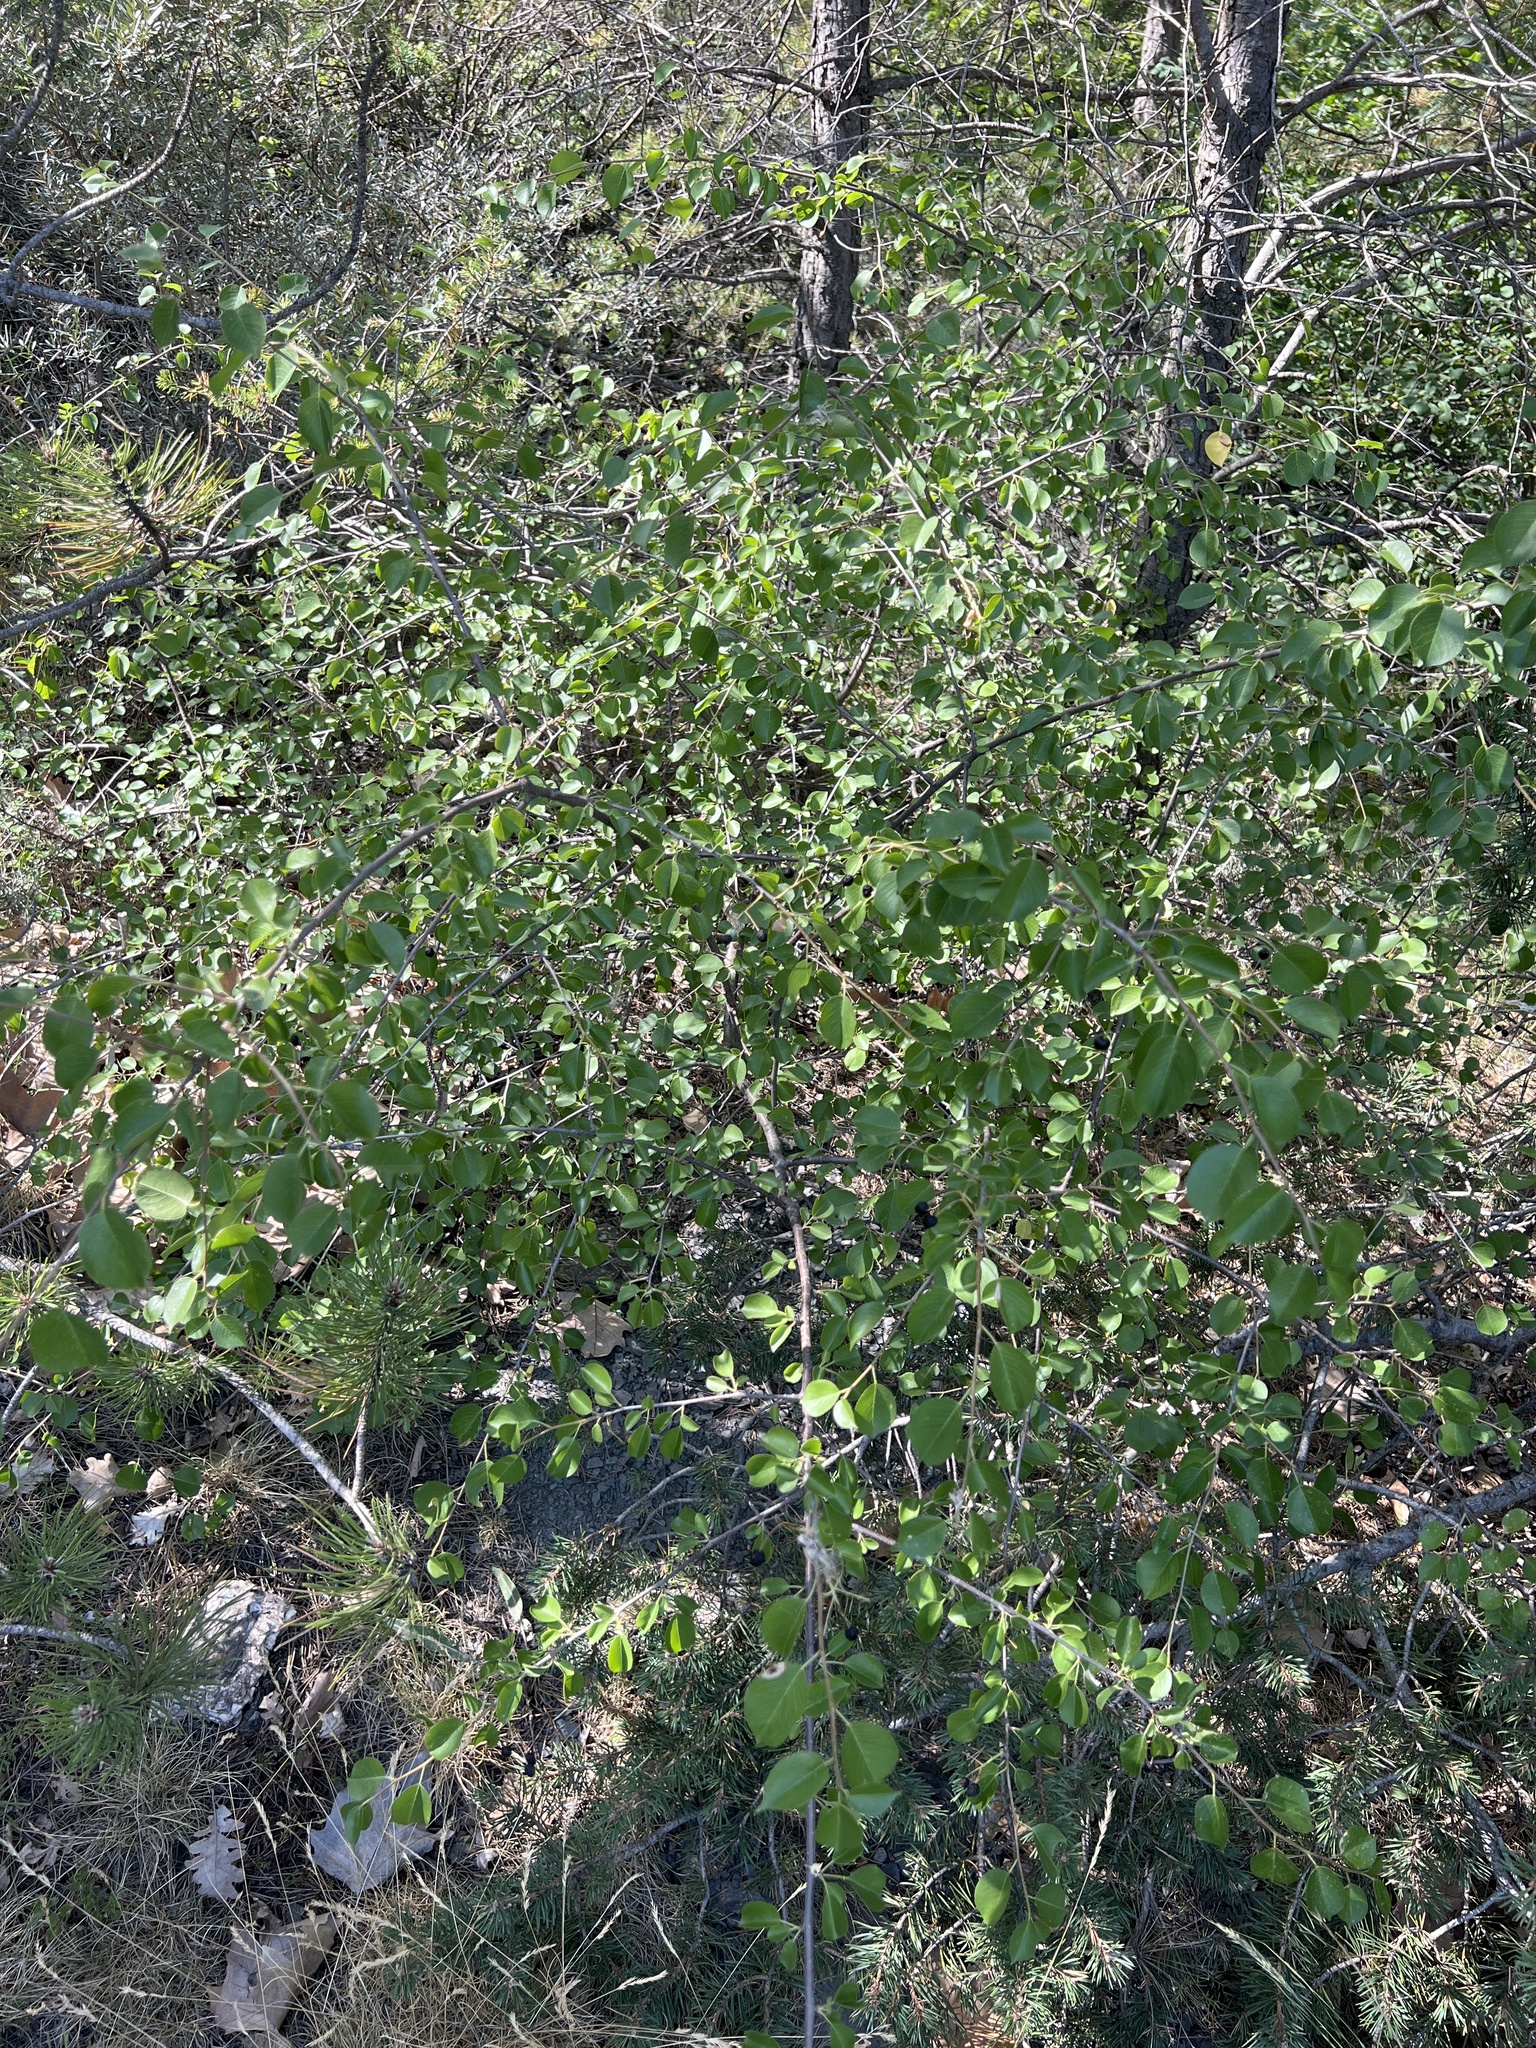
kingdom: Plantae
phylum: Tracheophyta
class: Magnoliopsida
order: Rosales
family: Rosaceae
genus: Prunus
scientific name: Prunus mahaleb
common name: Mahaleb cherry
